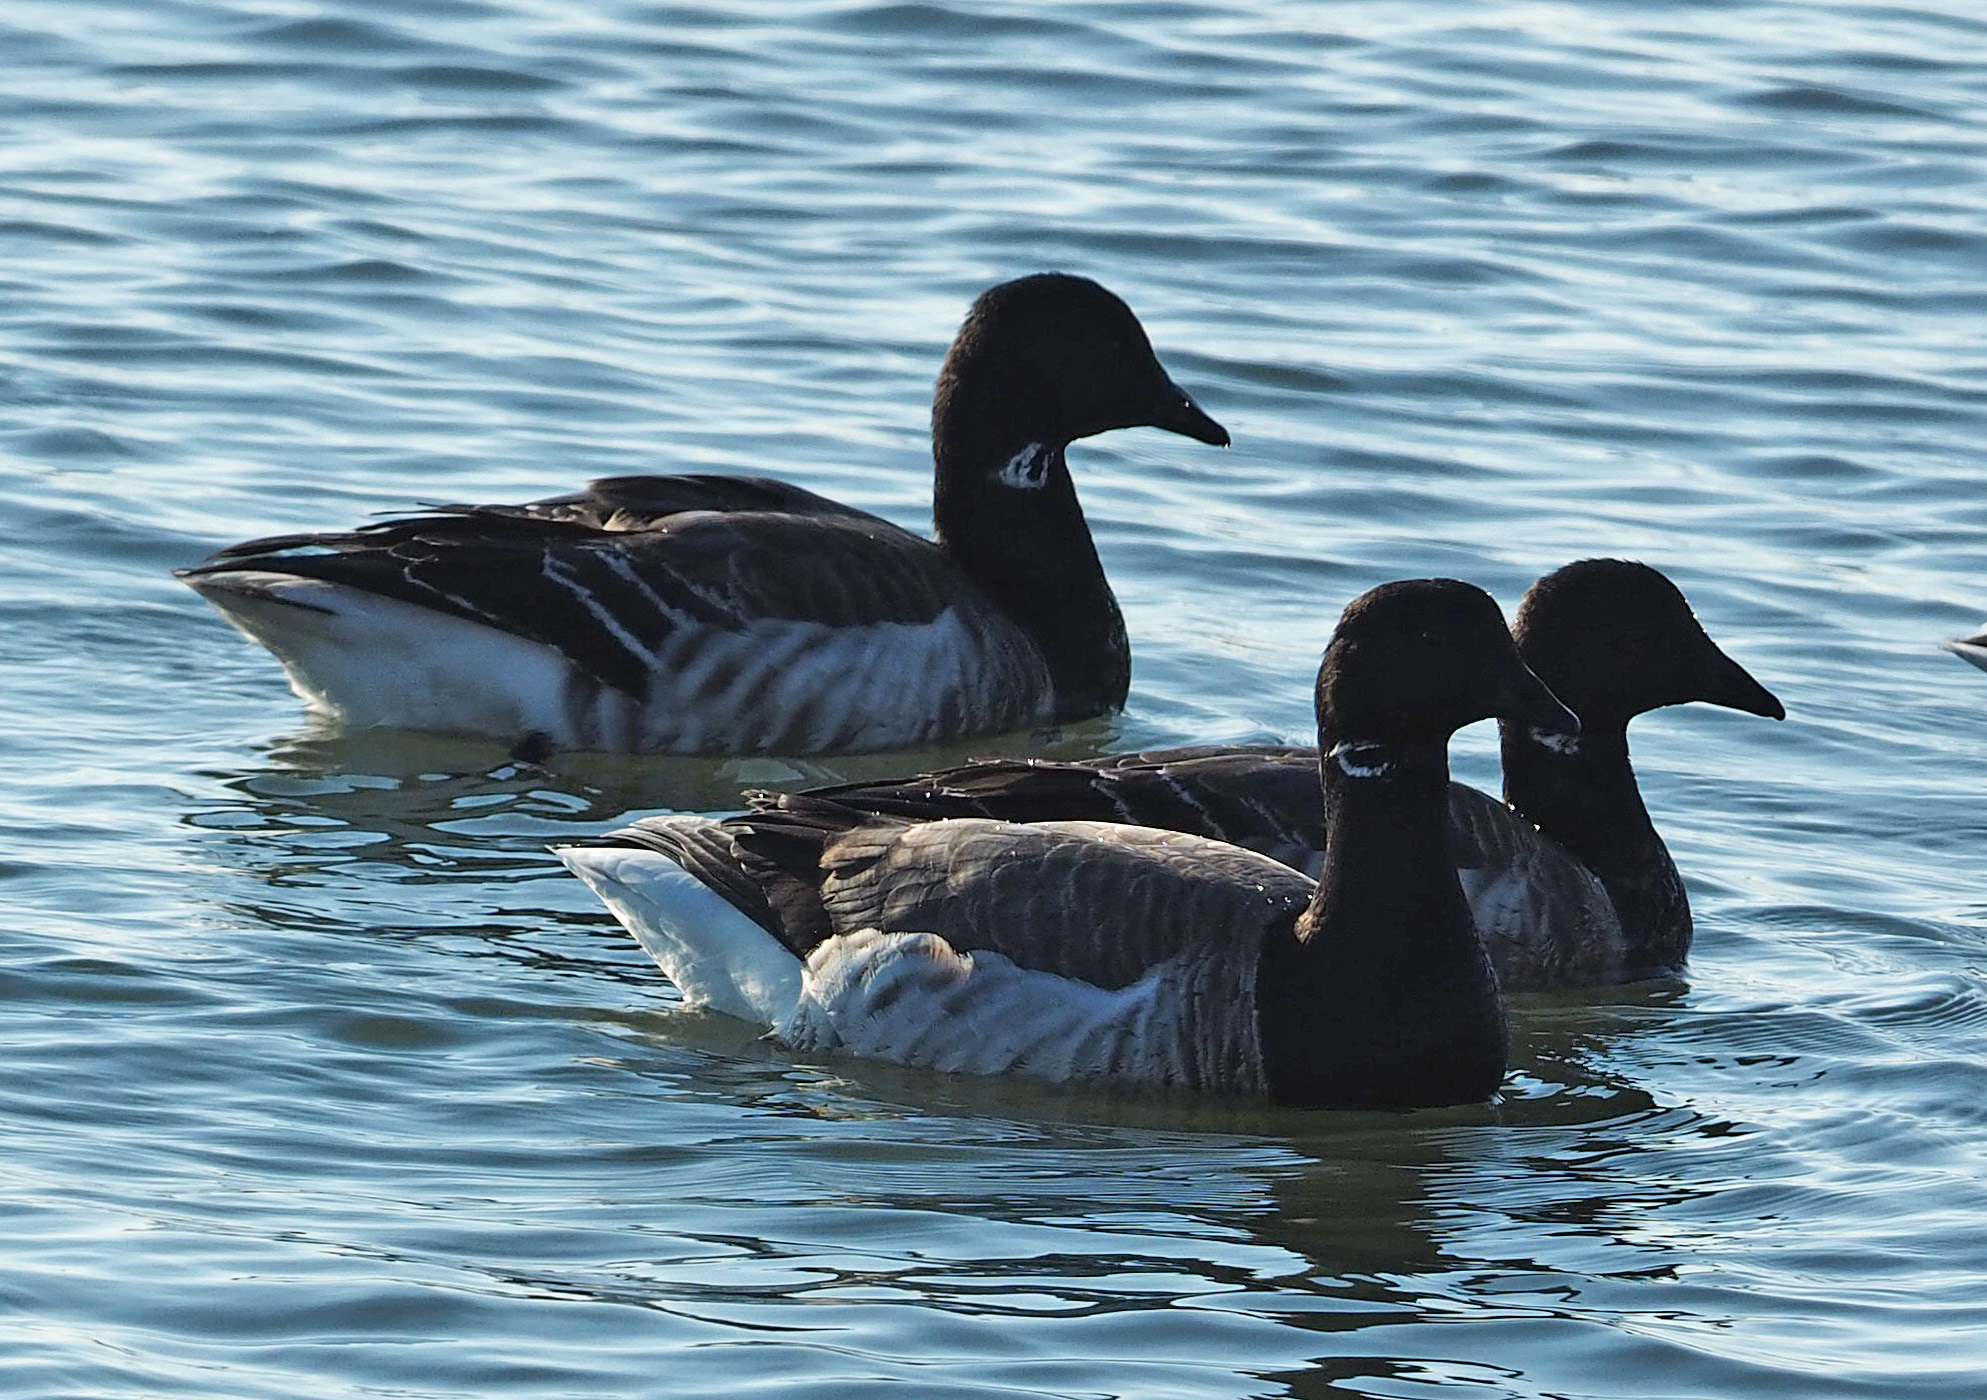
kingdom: Animalia
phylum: Chordata
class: Aves
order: Anseriformes
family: Anatidae
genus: Branta
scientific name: Branta bernicla
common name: Brant goose
